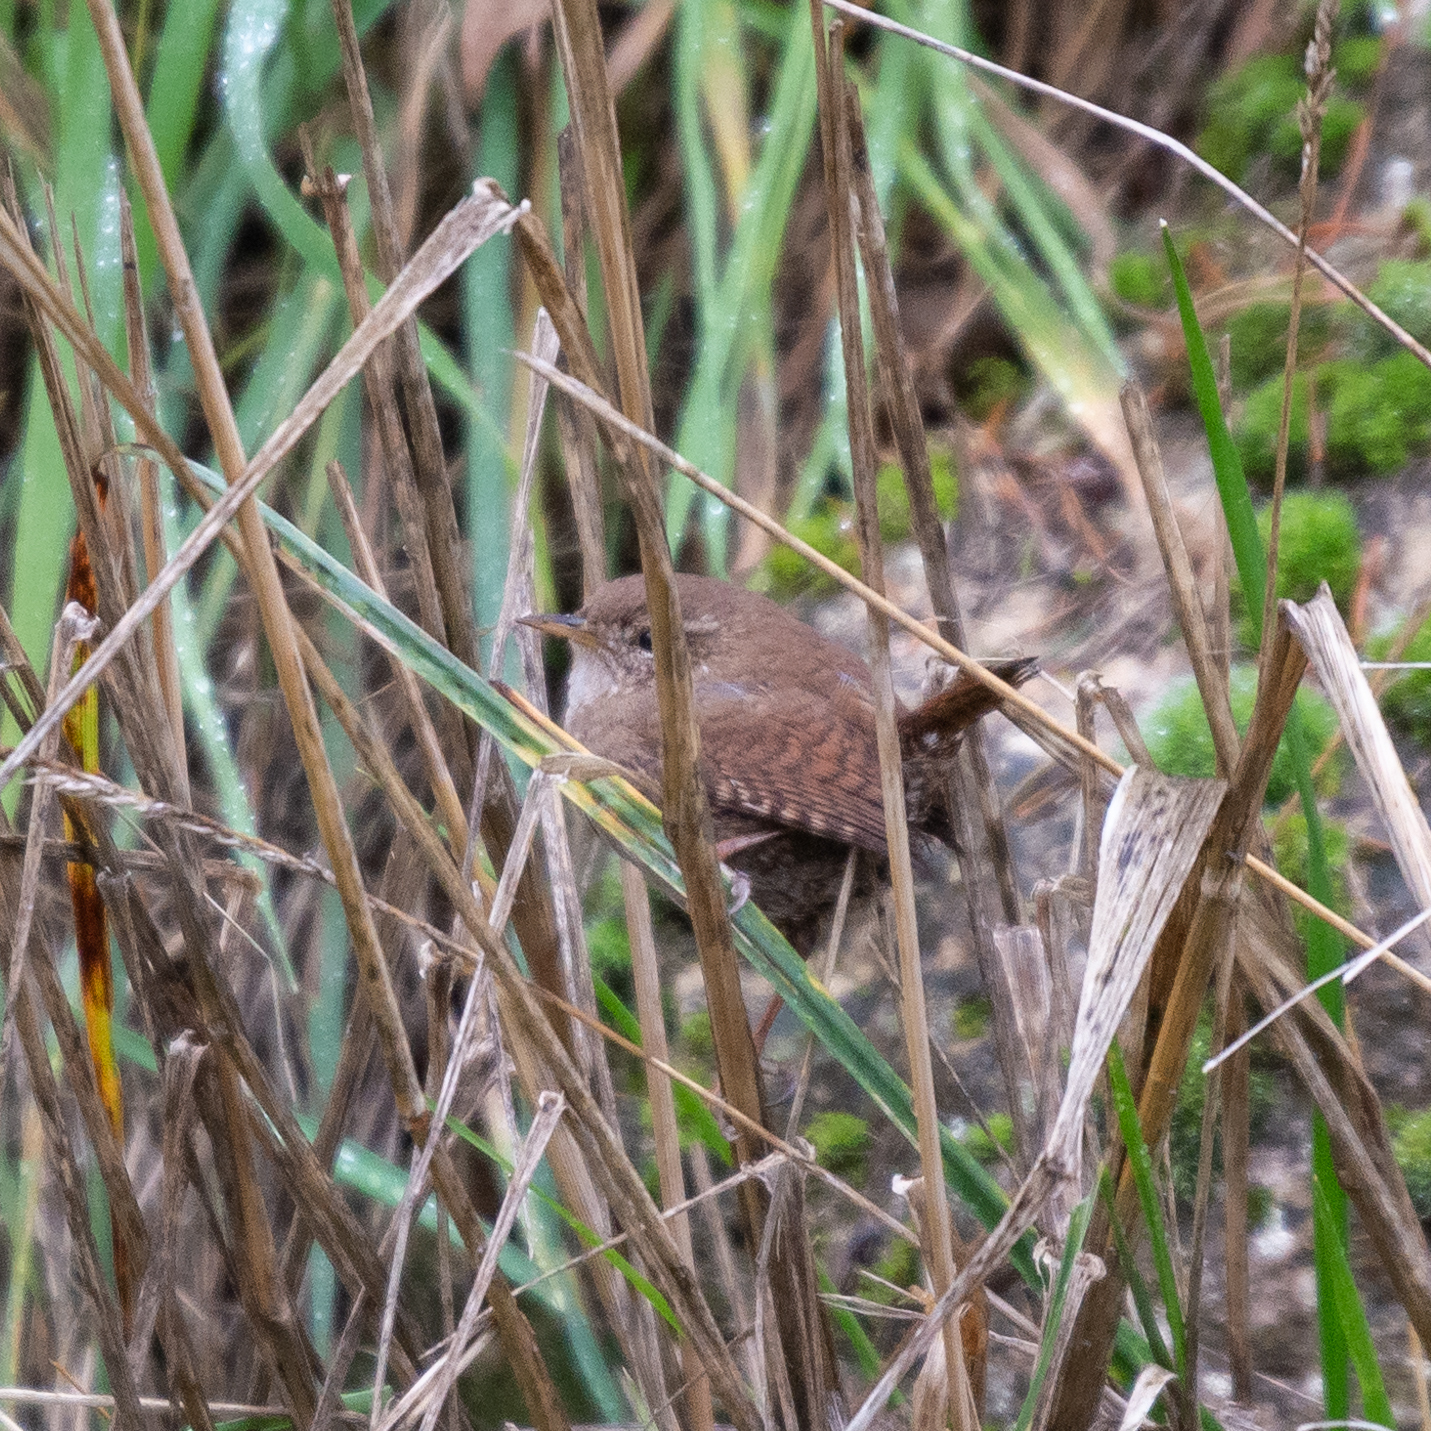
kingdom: Animalia
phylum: Chordata
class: Aves
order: Passeriformes
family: Troglodytidae
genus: Troglodytes
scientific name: Troglodytes troglodytes
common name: Eurasian wren
